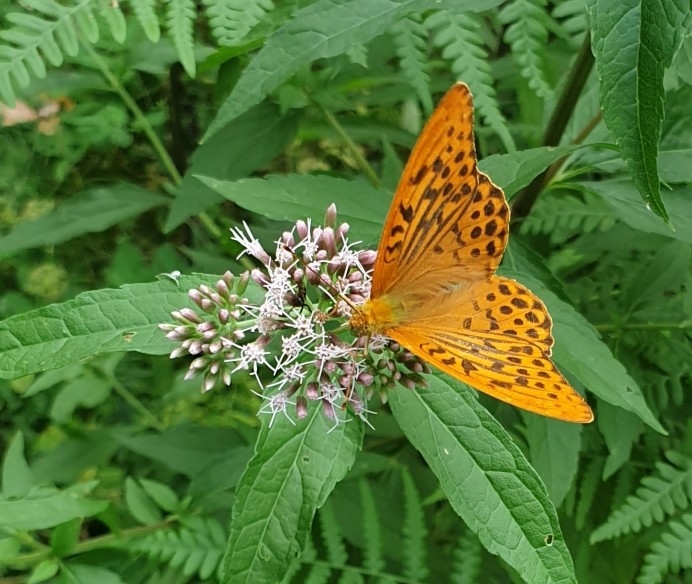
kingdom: Animalia
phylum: Arthropoda
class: Insecta
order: Lepidoptera
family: Nymphalidae
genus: Argynnis
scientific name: Argynnis paphia
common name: Silver-washed fritillary
